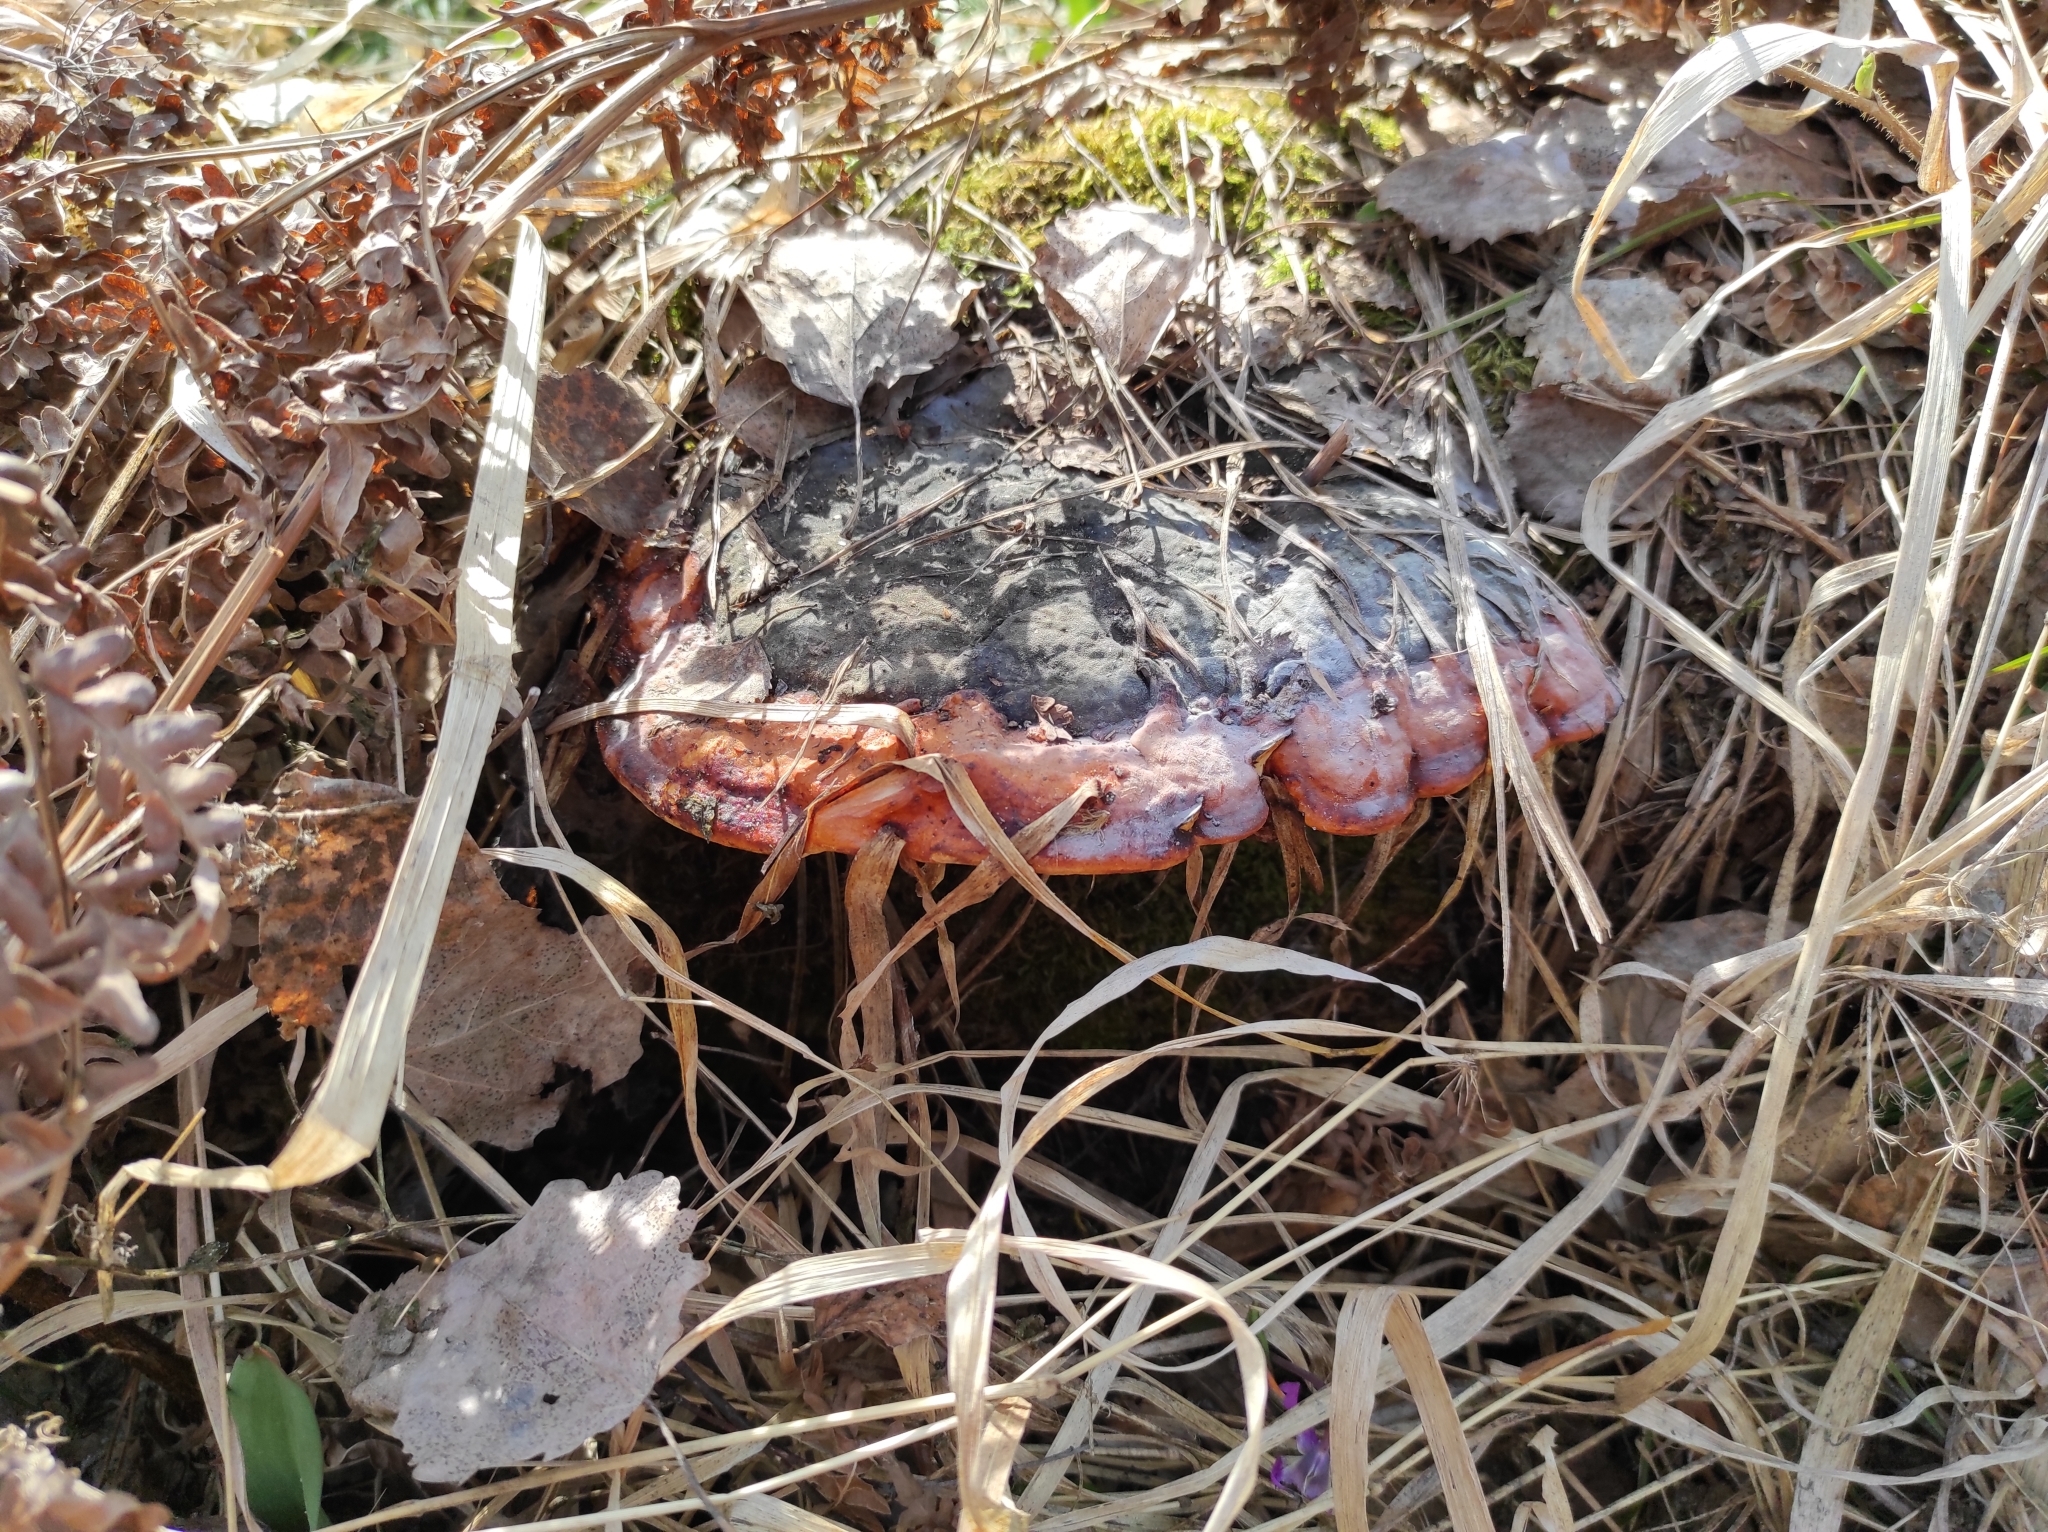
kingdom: Fungi
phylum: Basidiomycota
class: Agaricomycetes
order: Polyporales
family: Fomitopsidaceae
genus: Fomitopsis
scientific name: Fomitopsis pinicola
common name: Red-belted bracket
